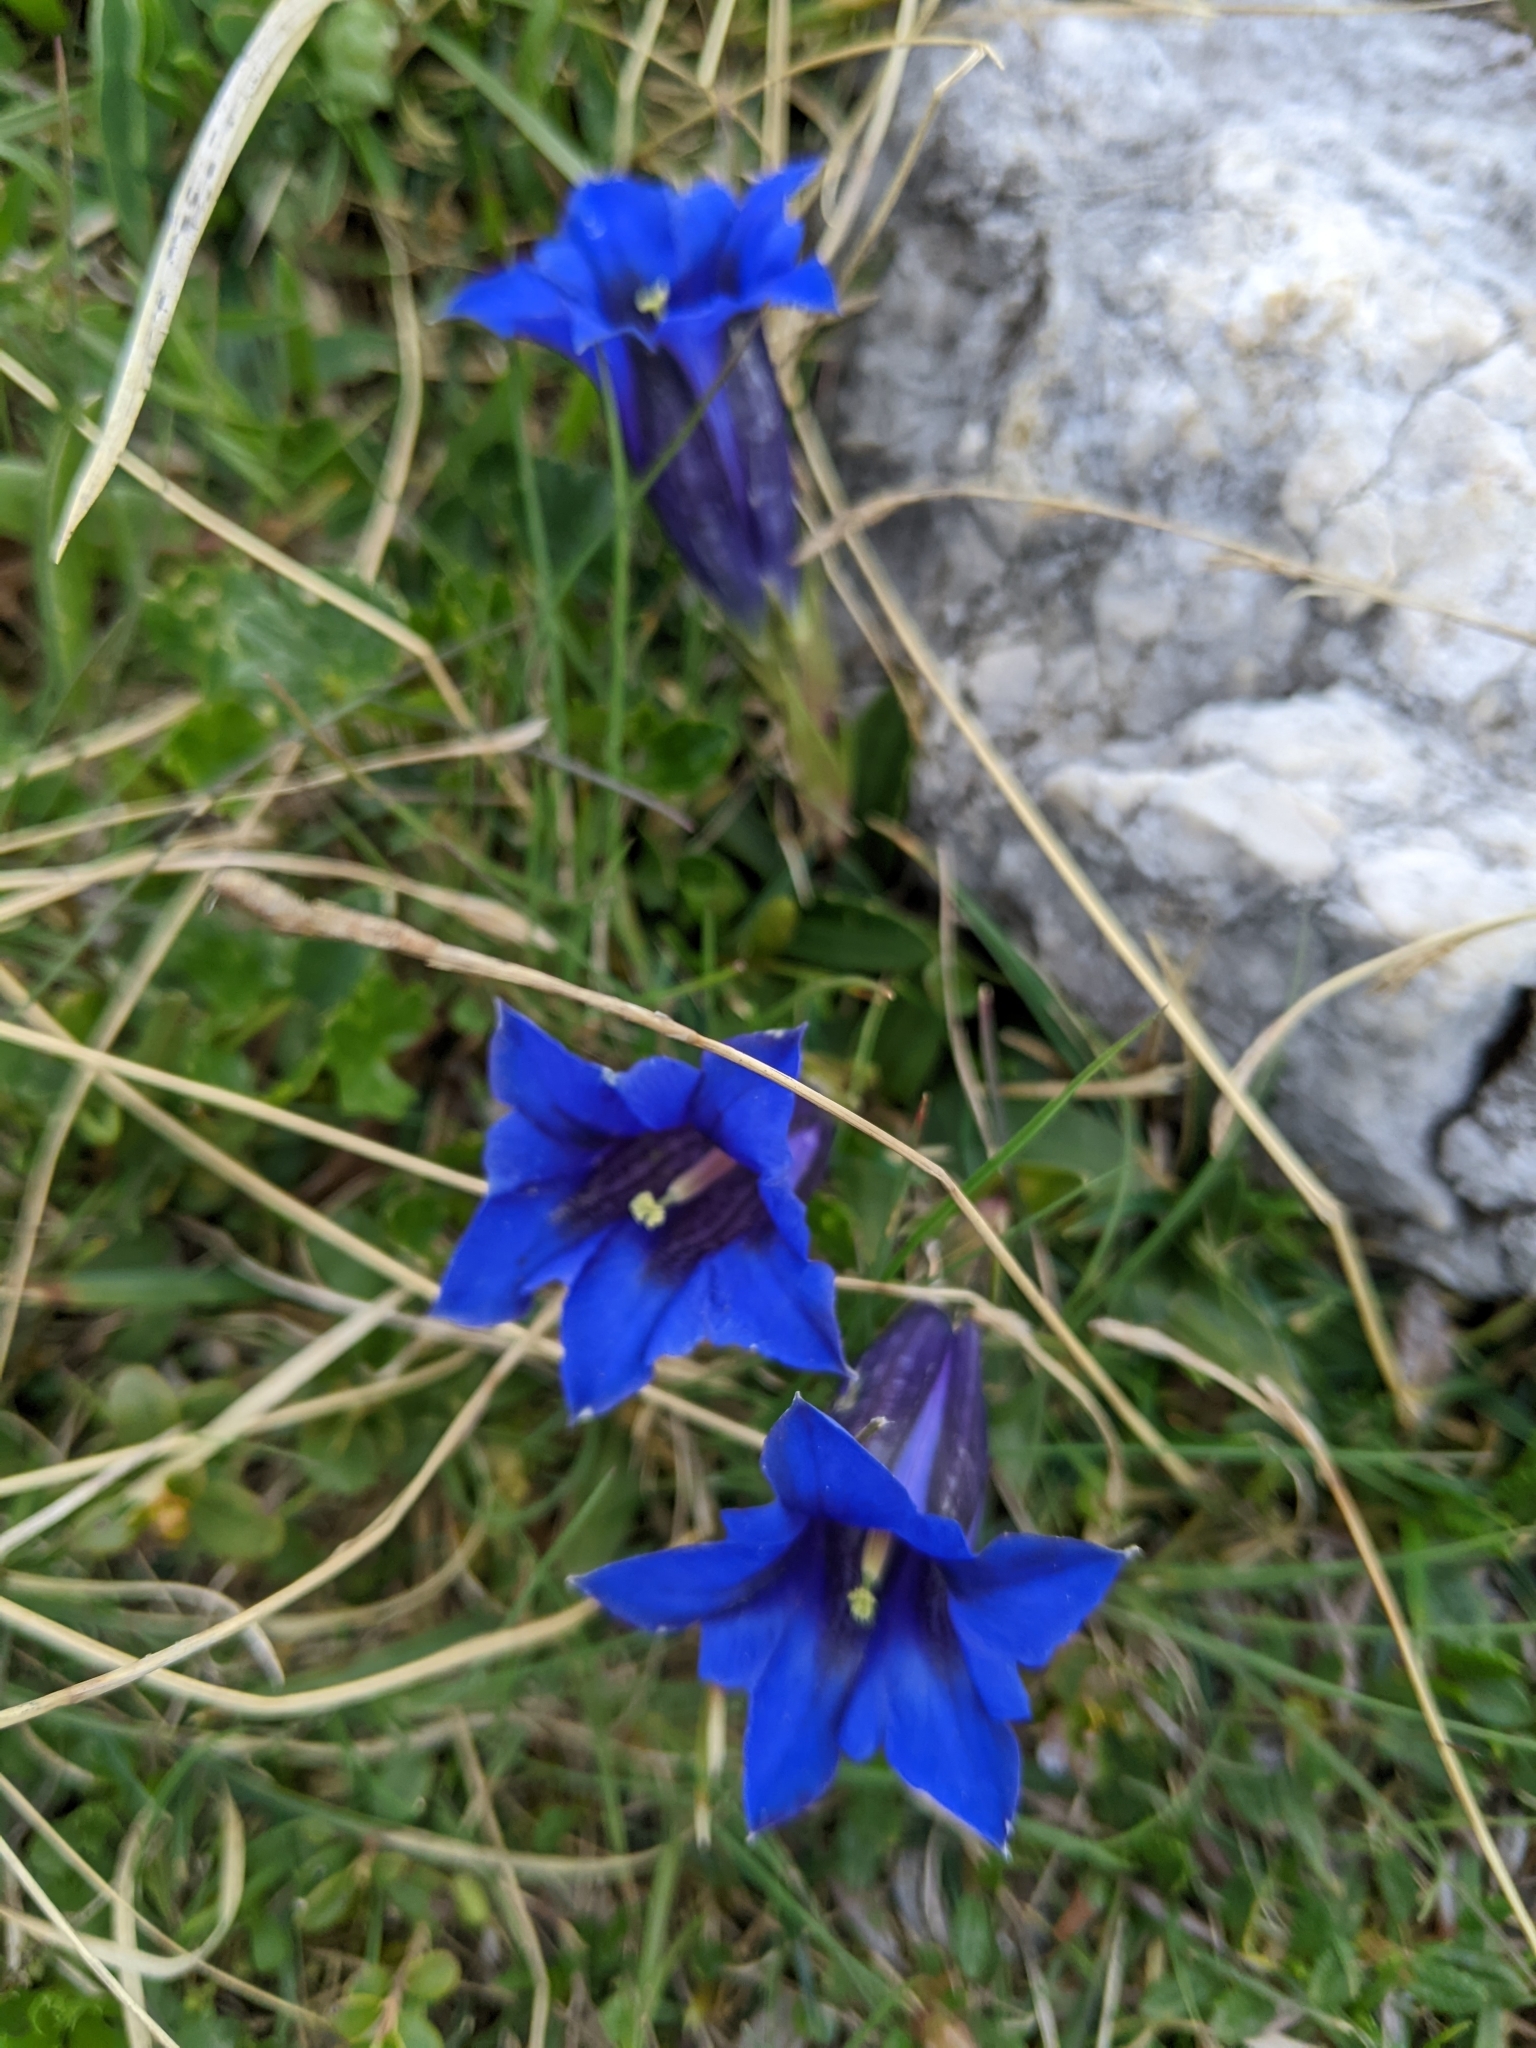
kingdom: Plantae
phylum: Tracheophyta
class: Magnoliopsida
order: Gentianales
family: Gentianaceae
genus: Gentiana
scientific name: Gentiana clusii
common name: Trumpet gentian
